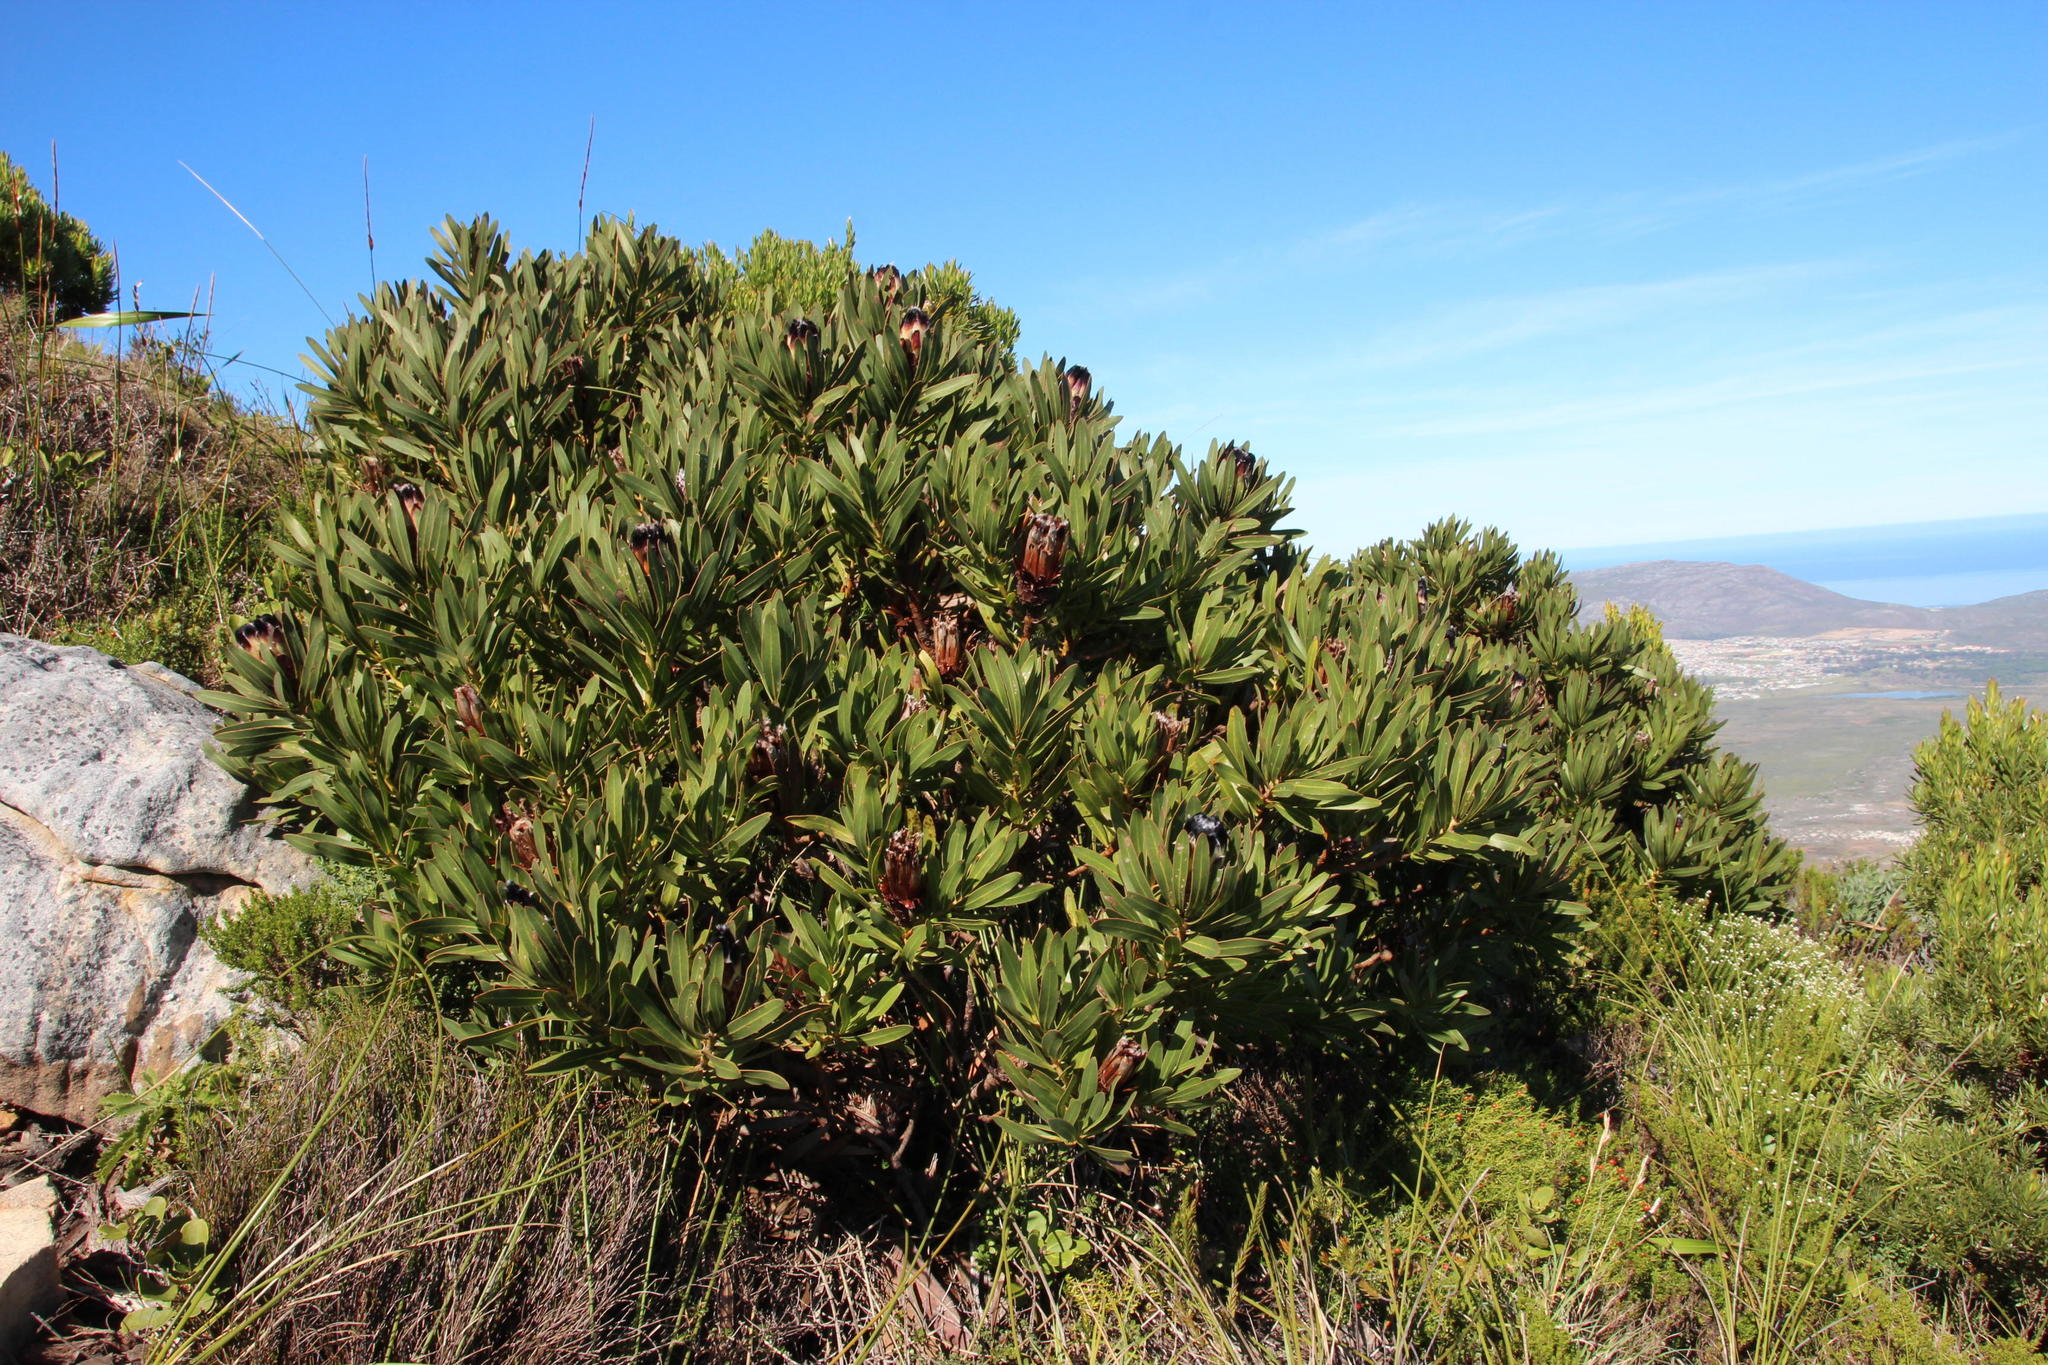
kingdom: Plantae
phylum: Tracheophyta
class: Magnoliopsida
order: Proteales
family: Proteaceae
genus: Protea
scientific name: Protea lepidocarpodendron
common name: Black-bearded protea
